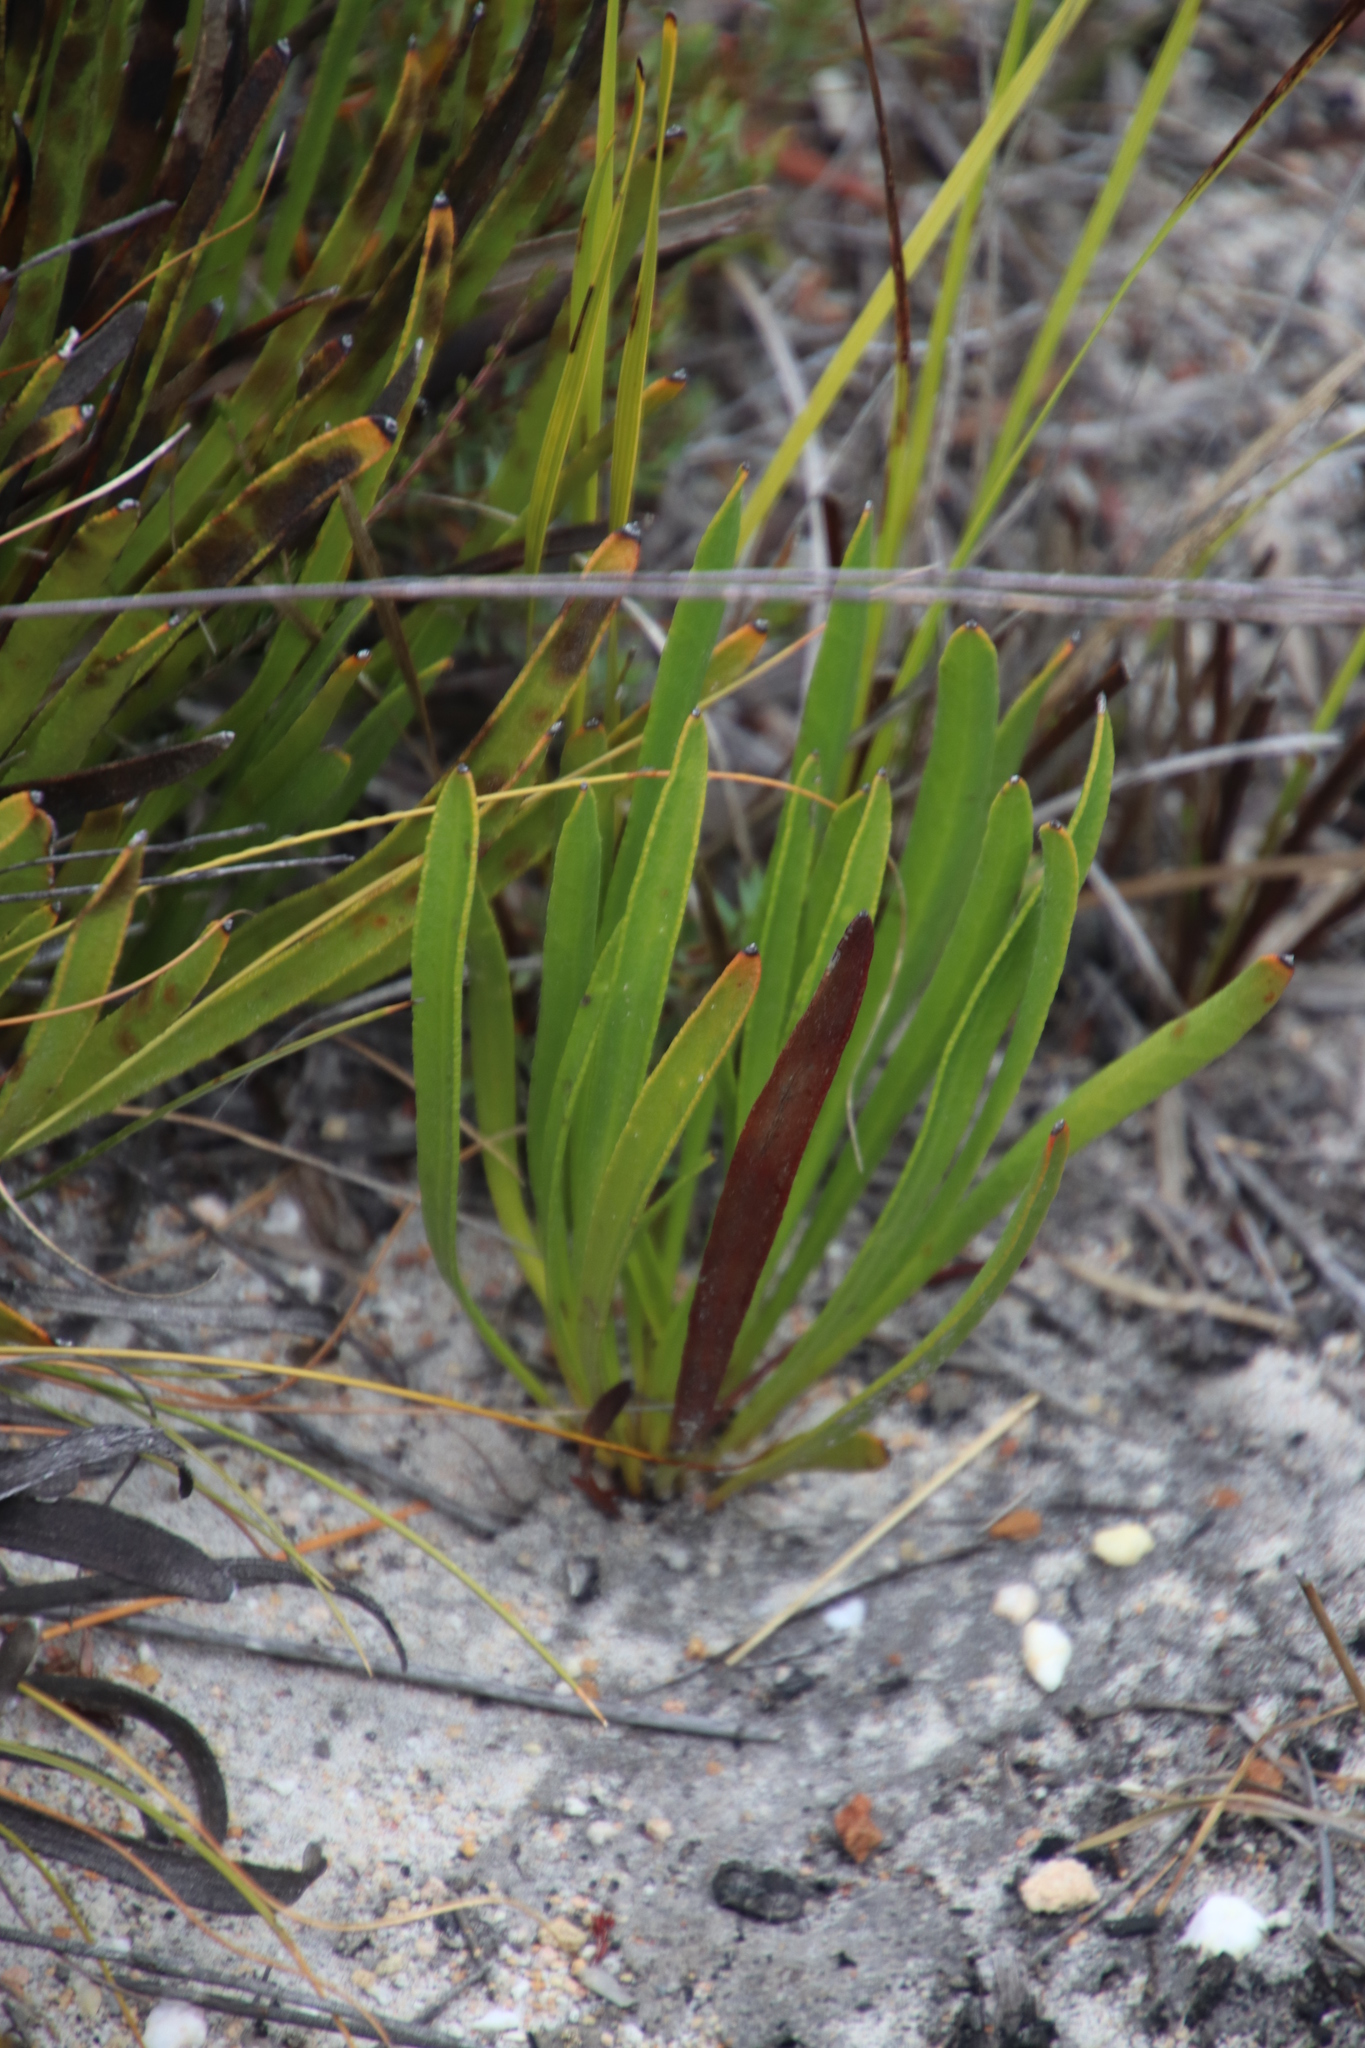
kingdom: Plantae
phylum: Tracheophyta
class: Magnoliopsida
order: Proteales
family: Proteaceae
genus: Protea
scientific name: Protea scabra
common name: Sandpaper-leaf sugarbush
